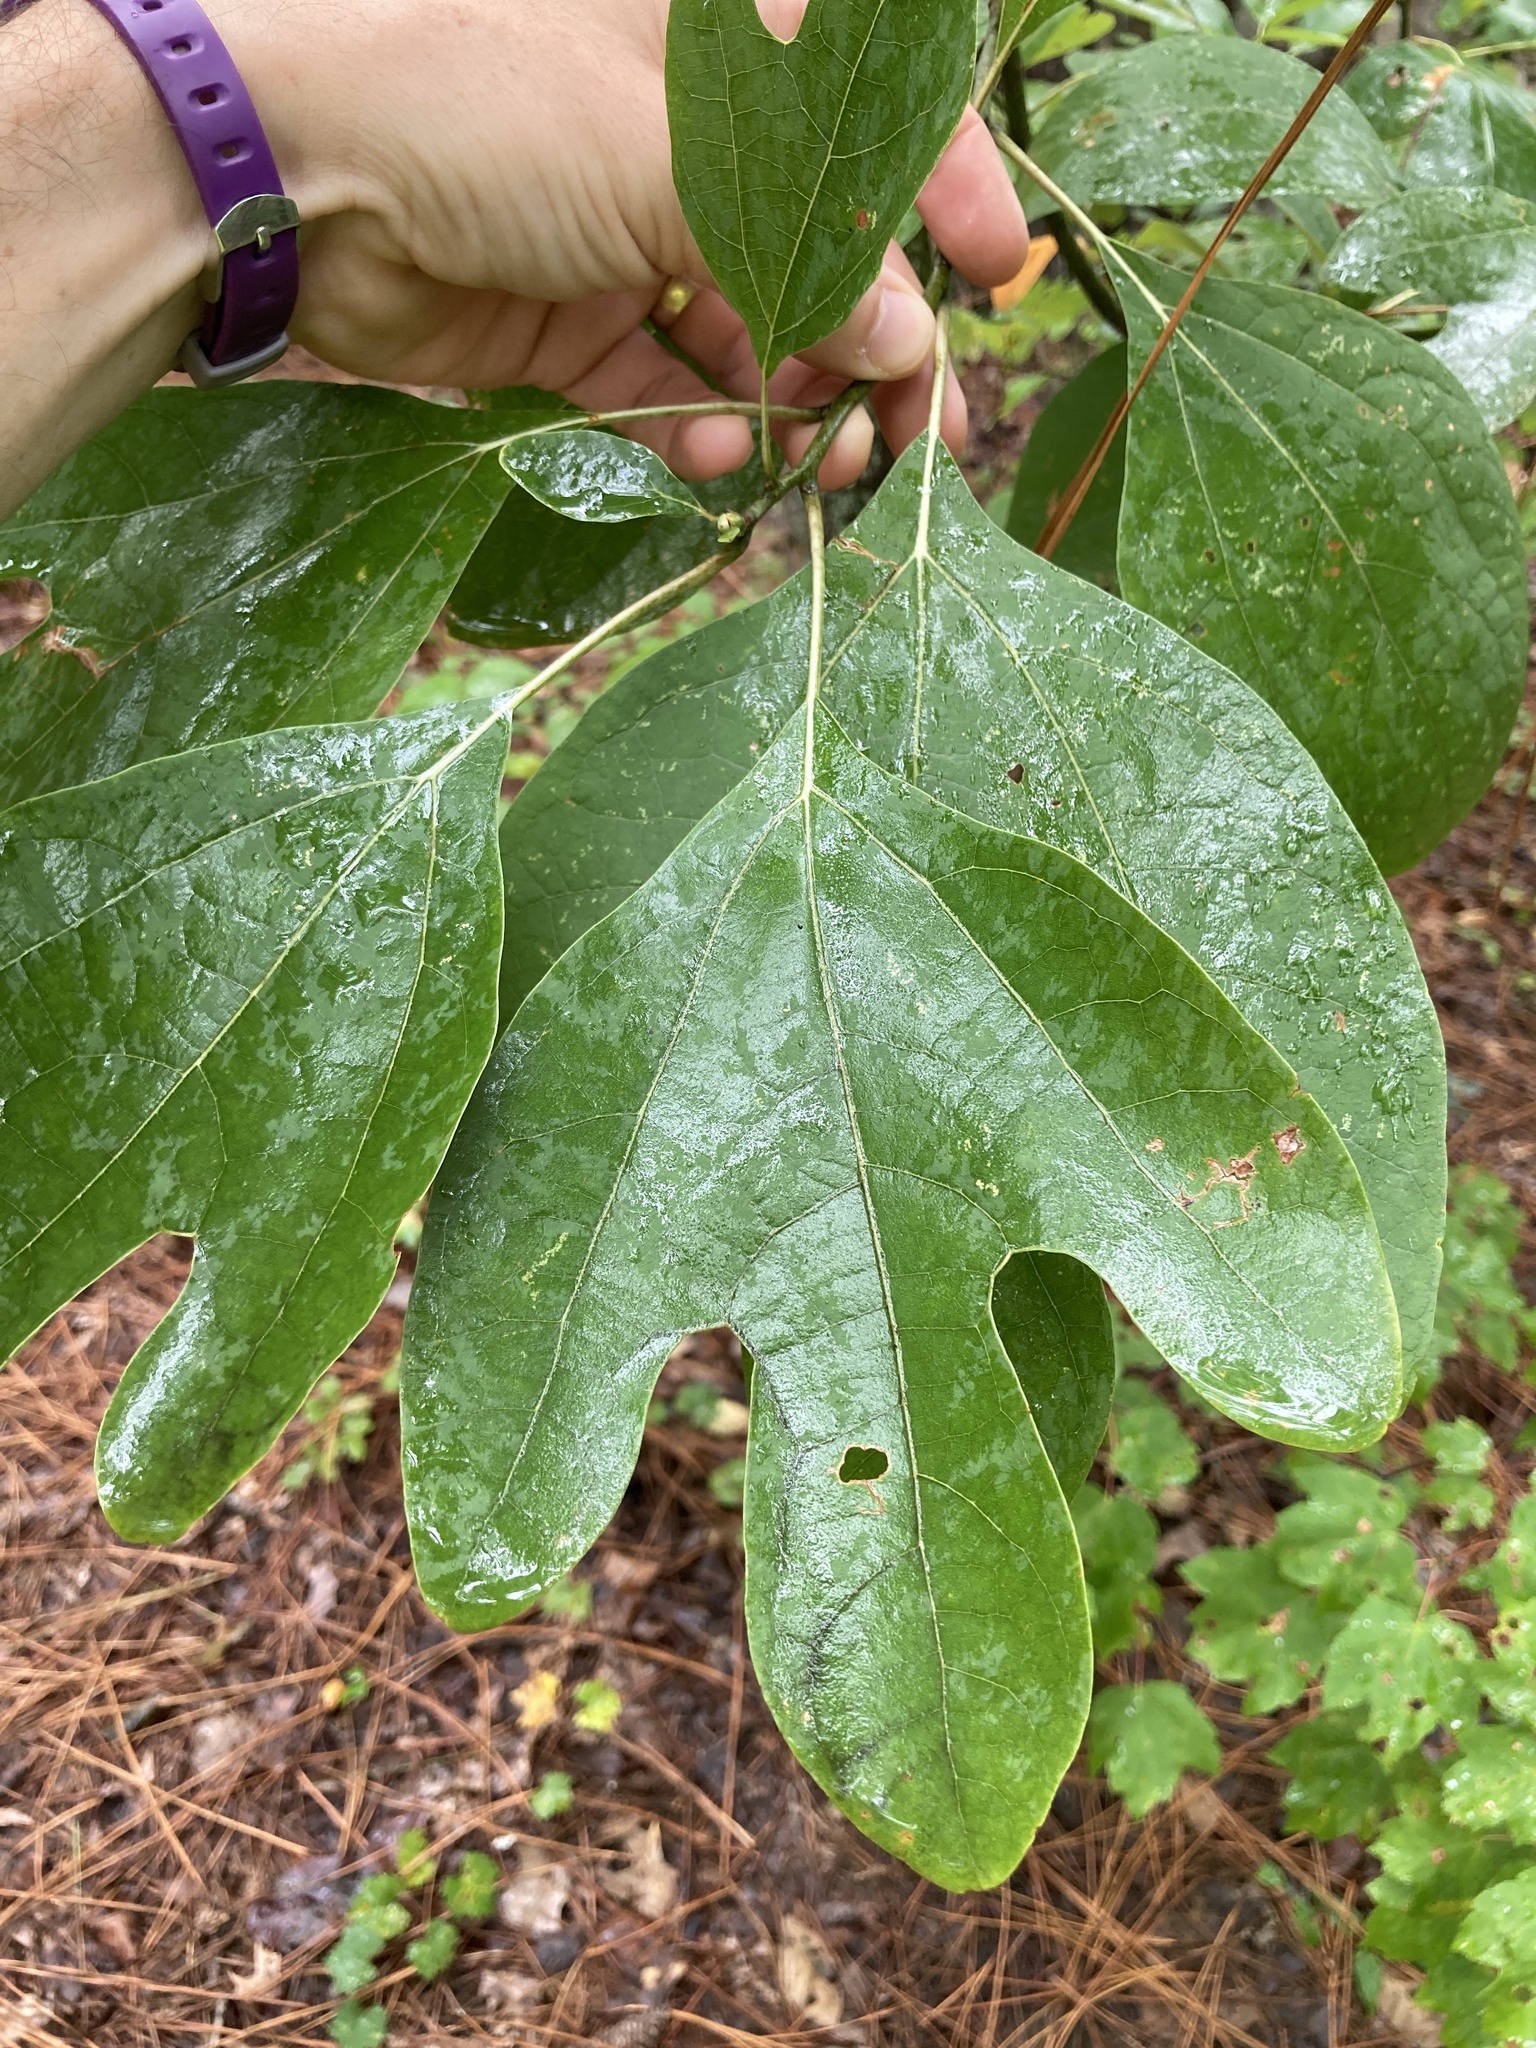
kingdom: Plantae
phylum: Tracheophyta
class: Magnoliopsida
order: Laurales
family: Lauraceae
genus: Sassafras
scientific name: Sassafras albidum
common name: Sassafras
